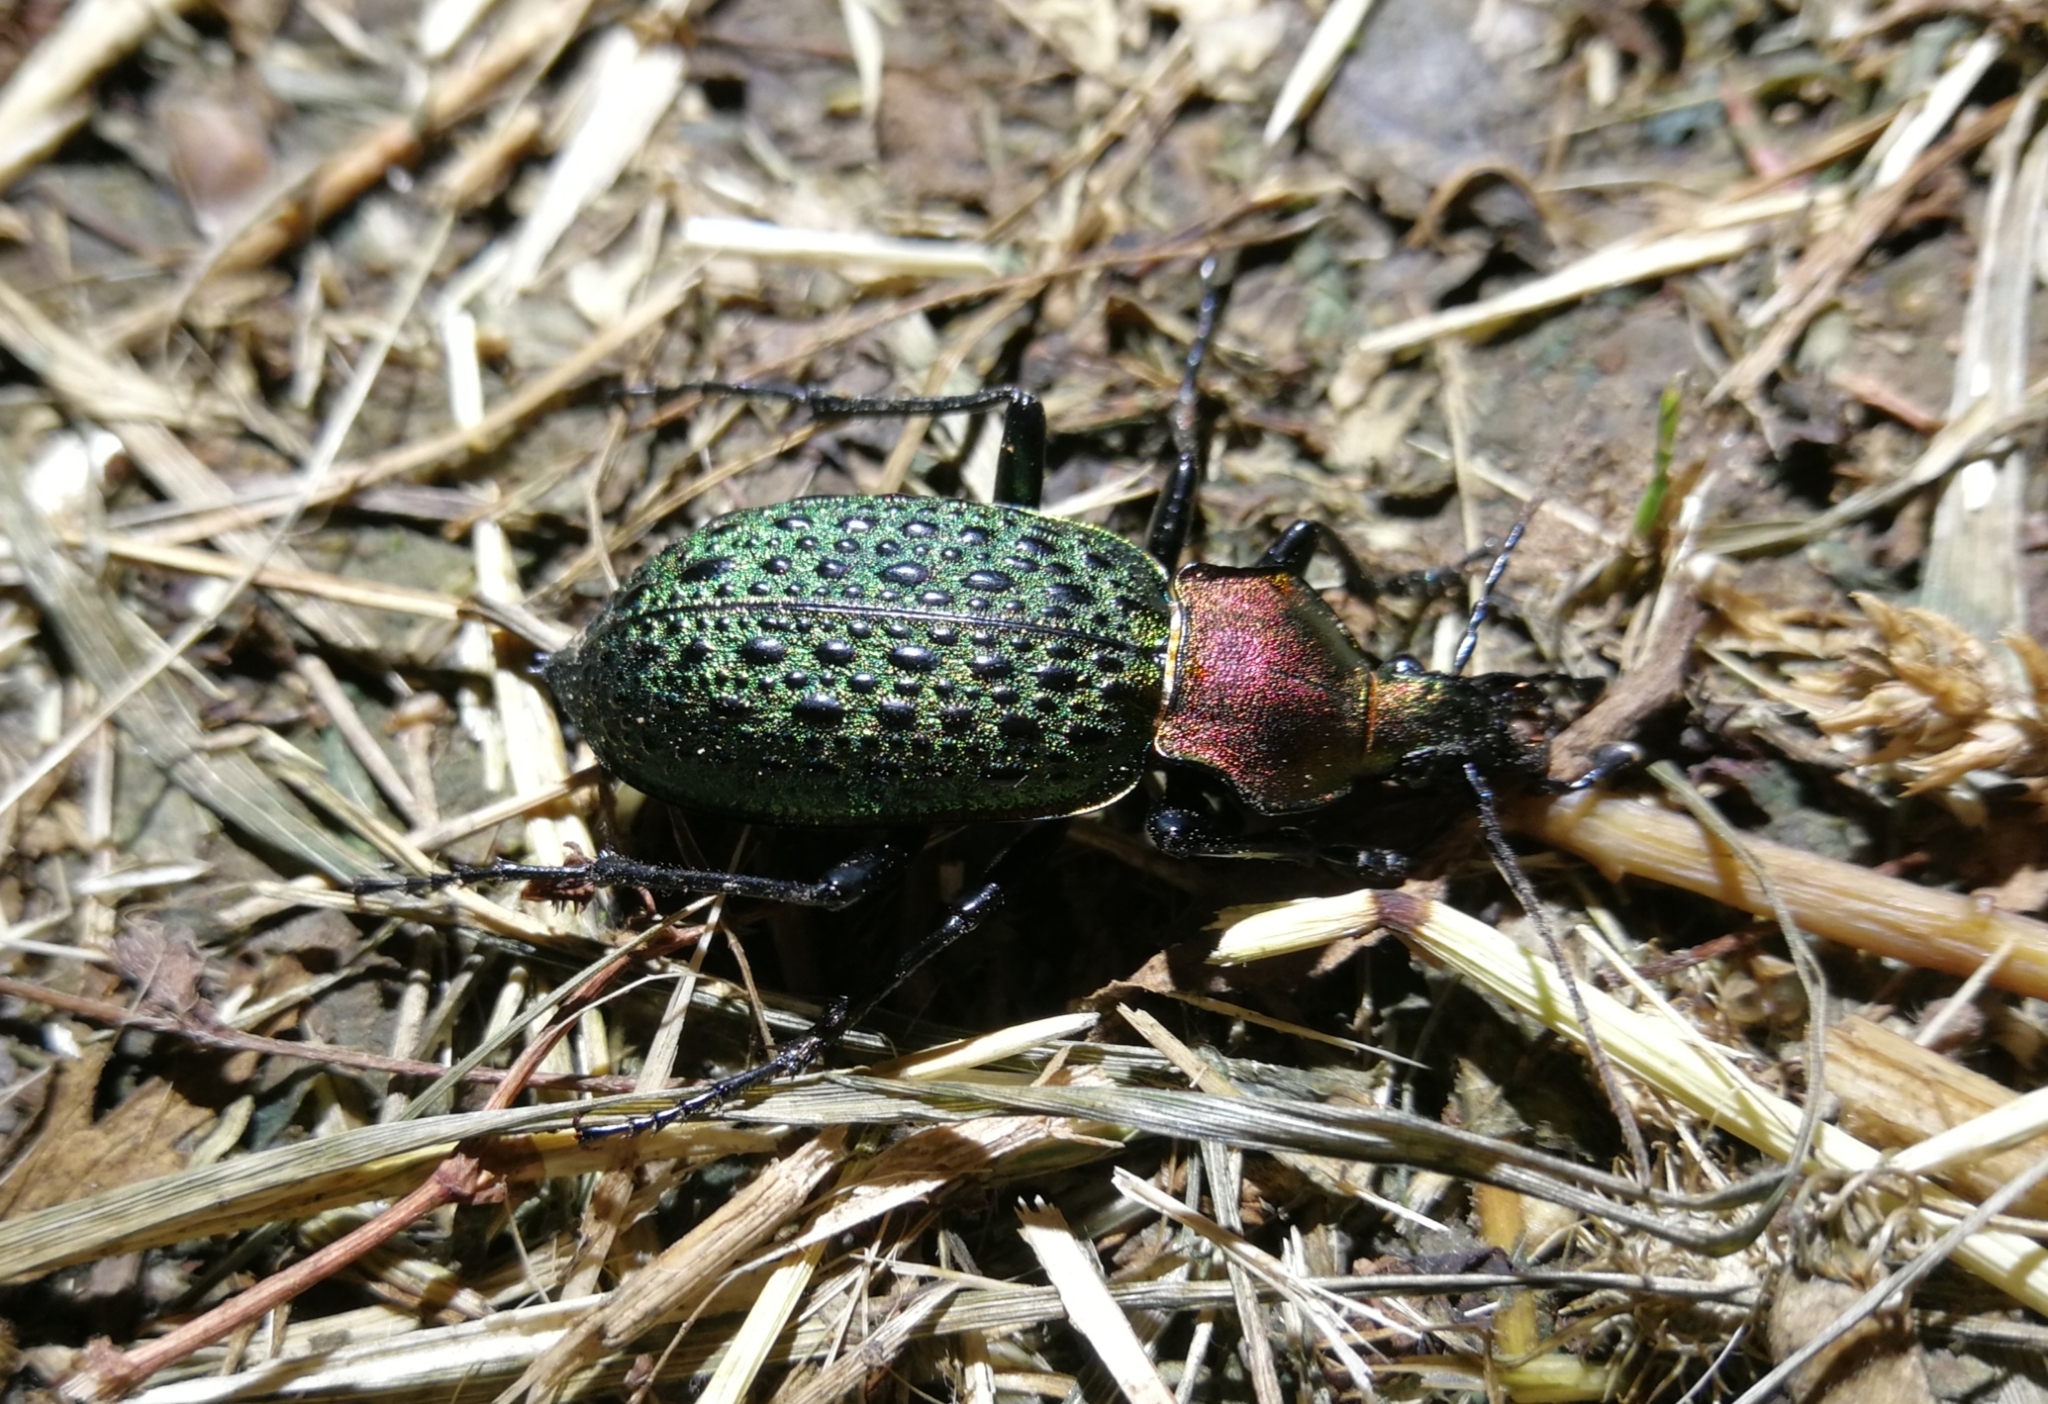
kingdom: Animalia
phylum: Arthropoda
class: Insecta
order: Coleoptera
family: Carabidae
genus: Carabus
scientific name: Carabus elysii
